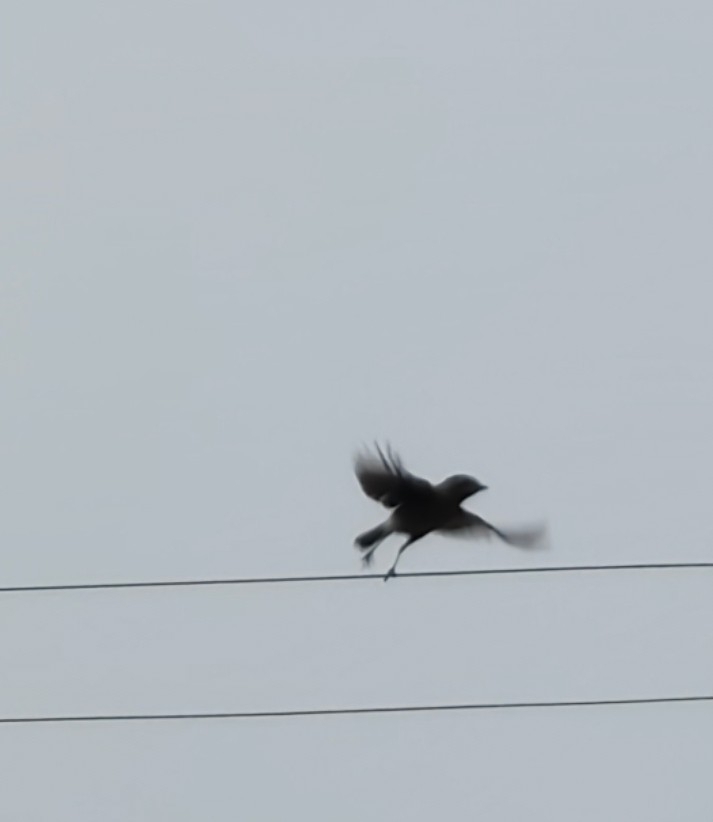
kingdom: Animalia
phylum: Chordata
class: Aves
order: Passeriformes
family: Muscicapidae
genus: Saxicola
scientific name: Saxicola caprata
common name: Pied bush chat
